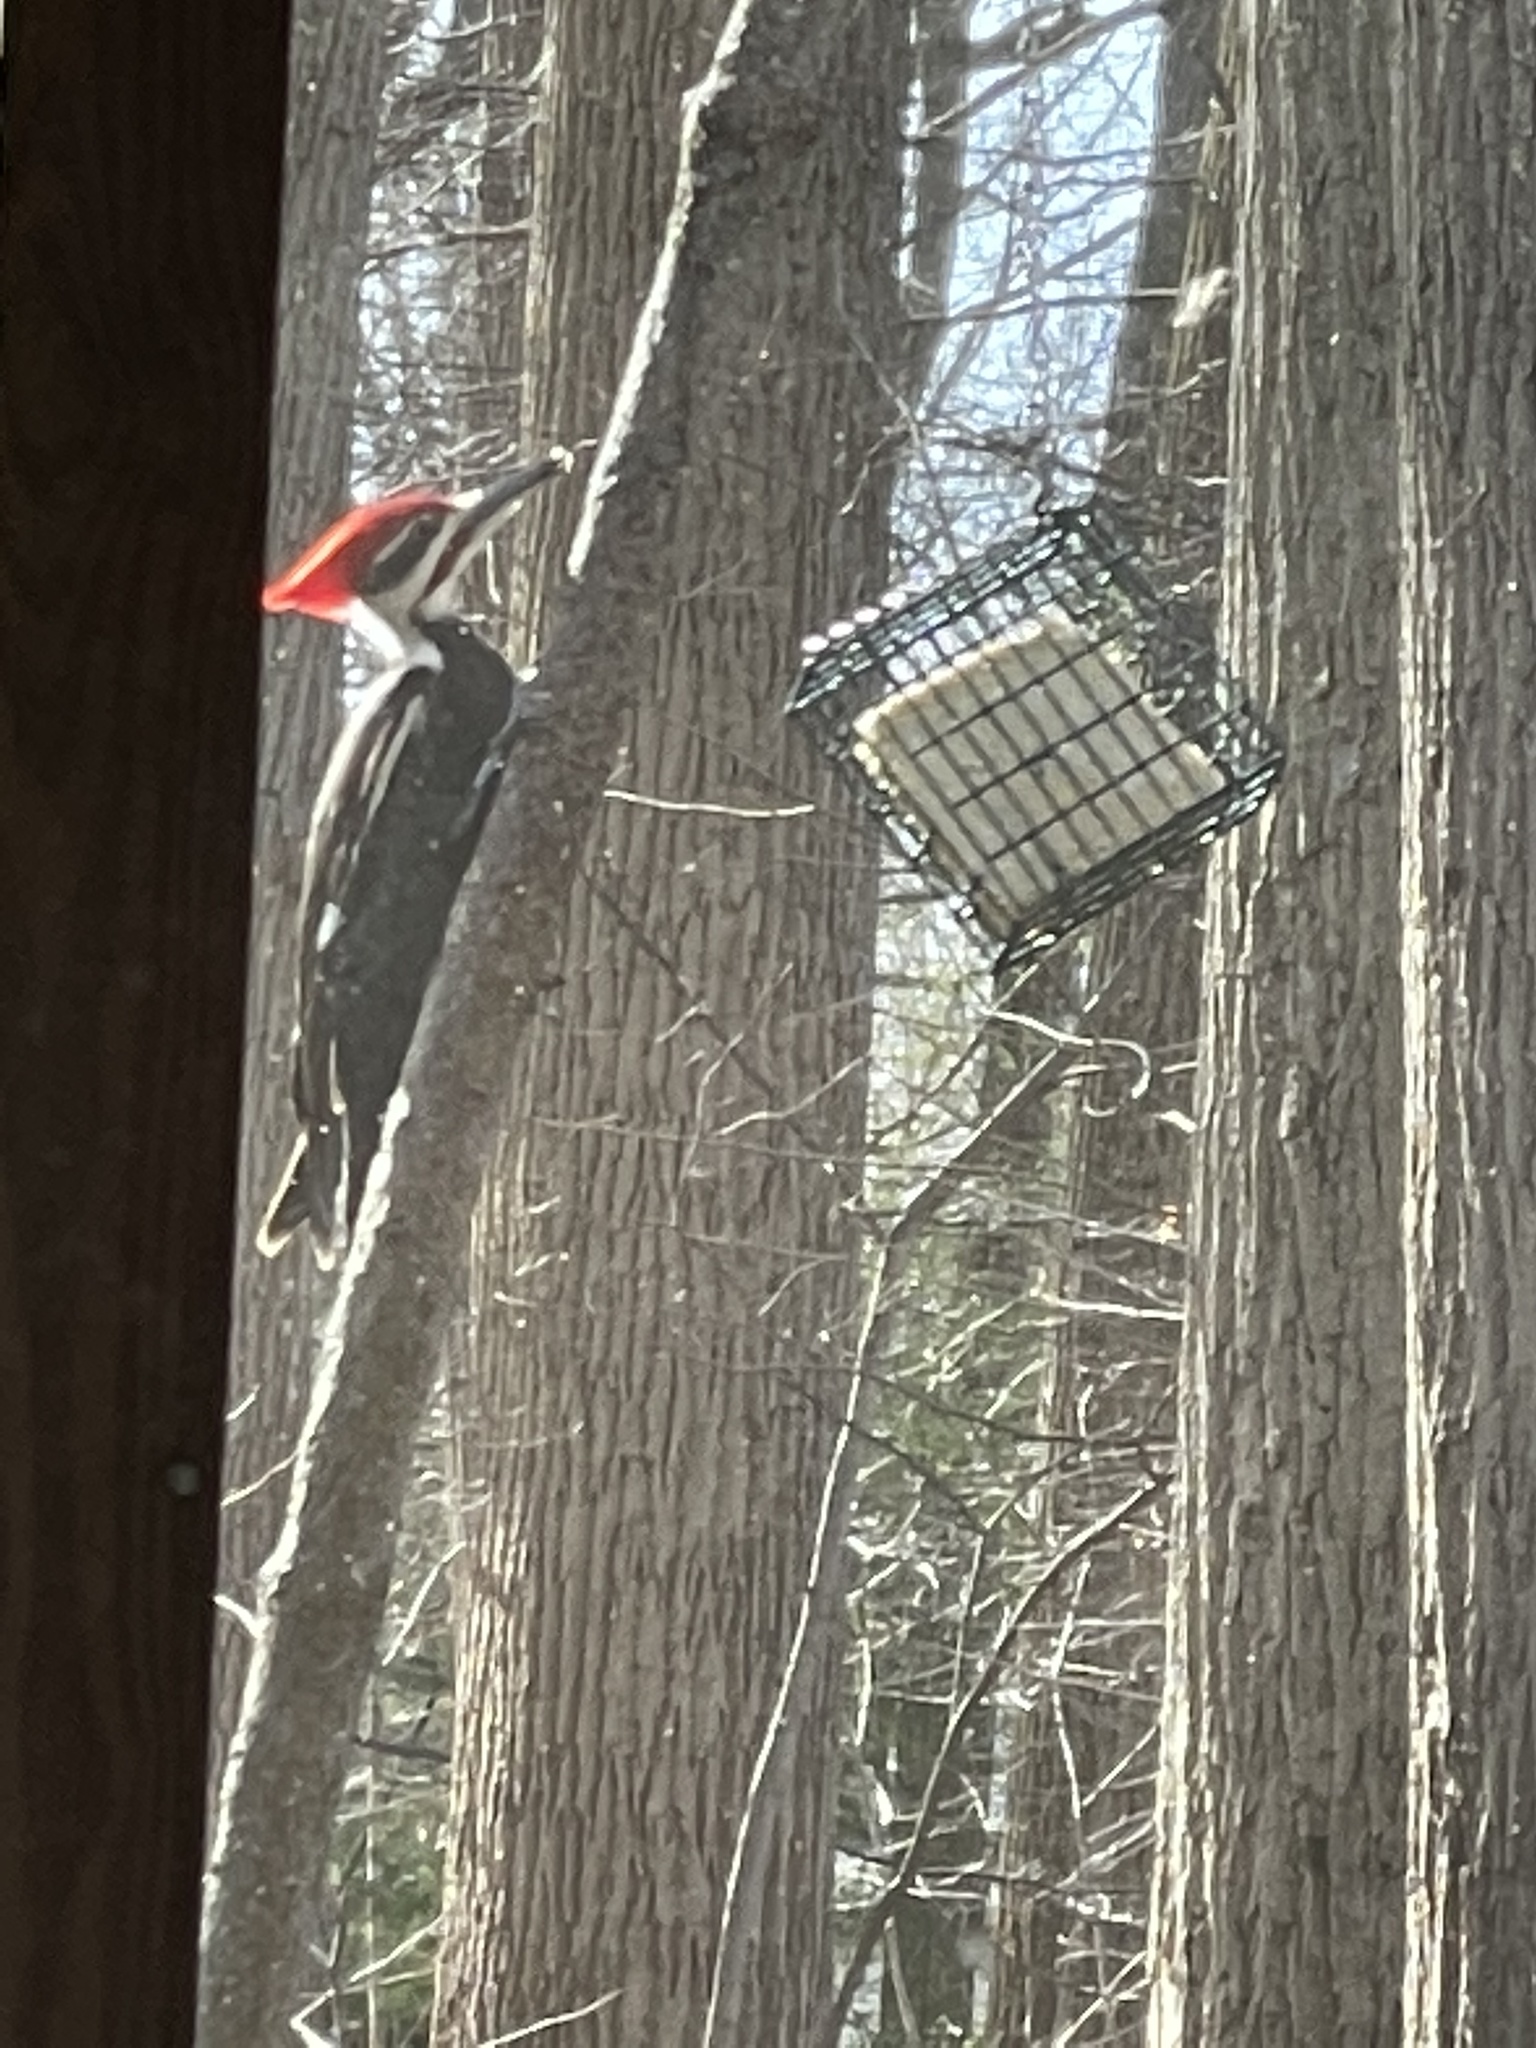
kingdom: Animalia
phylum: Chordata
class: Aves
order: Piciformes
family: Picidae
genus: Dryocopus
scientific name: Dryocopus pileatus
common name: Pileated woodpecker
